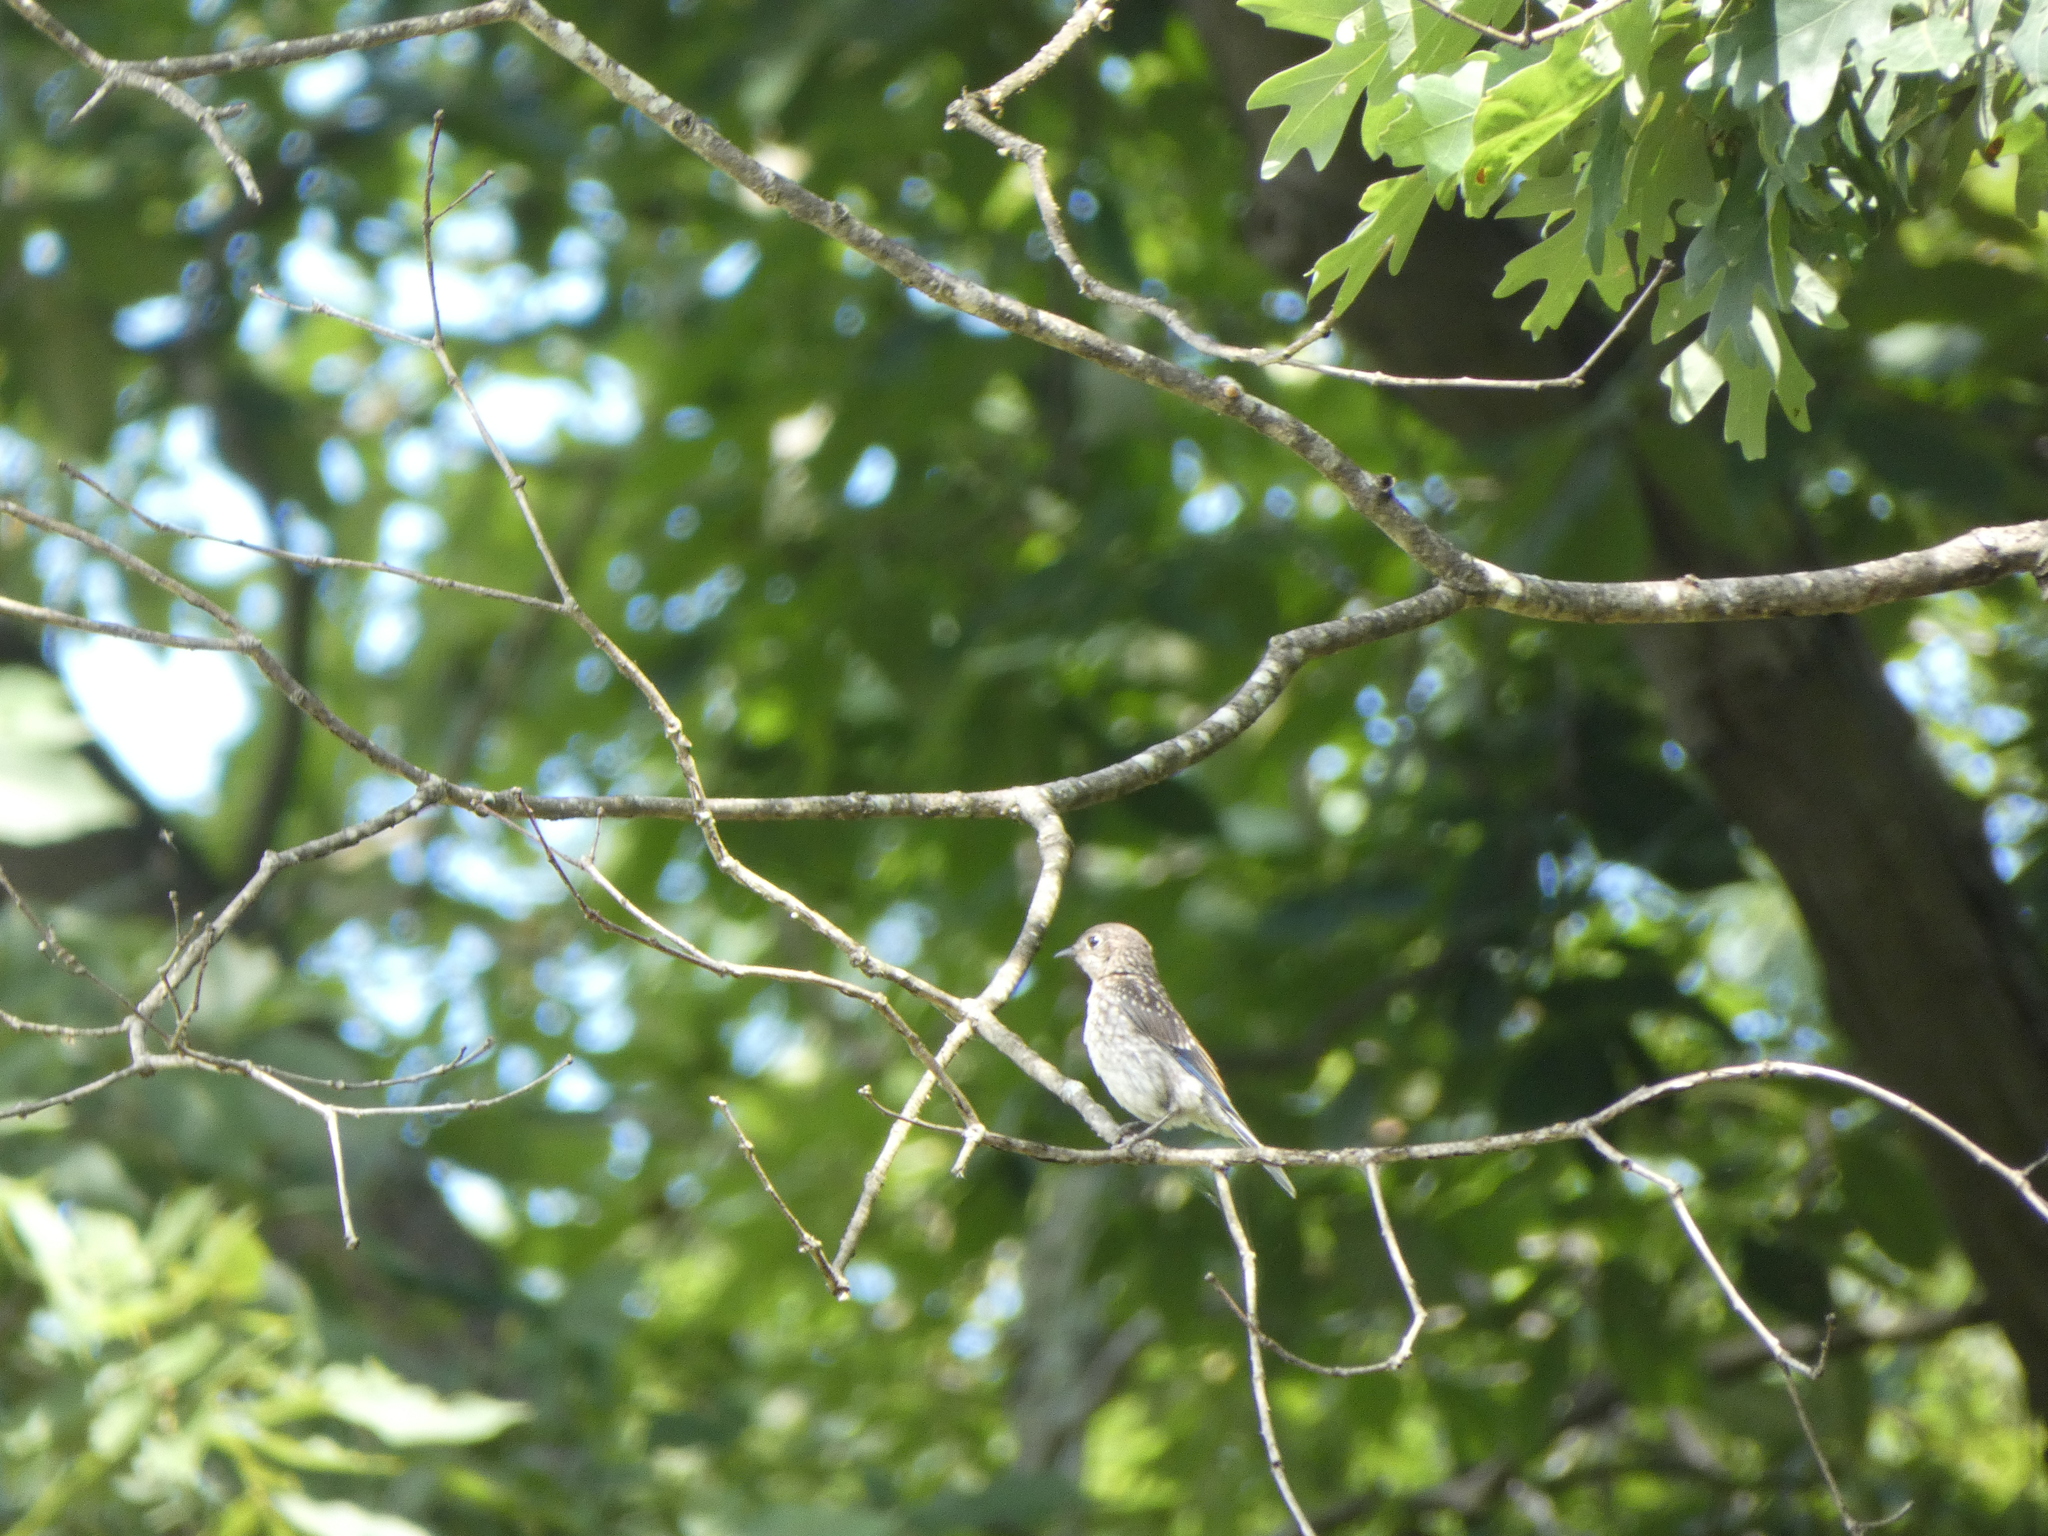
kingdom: Animalia
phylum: Chordata
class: Aves
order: Passeriformes
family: Turdidae
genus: Sialia
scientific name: Sialia sialis
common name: Eastern bluebird
